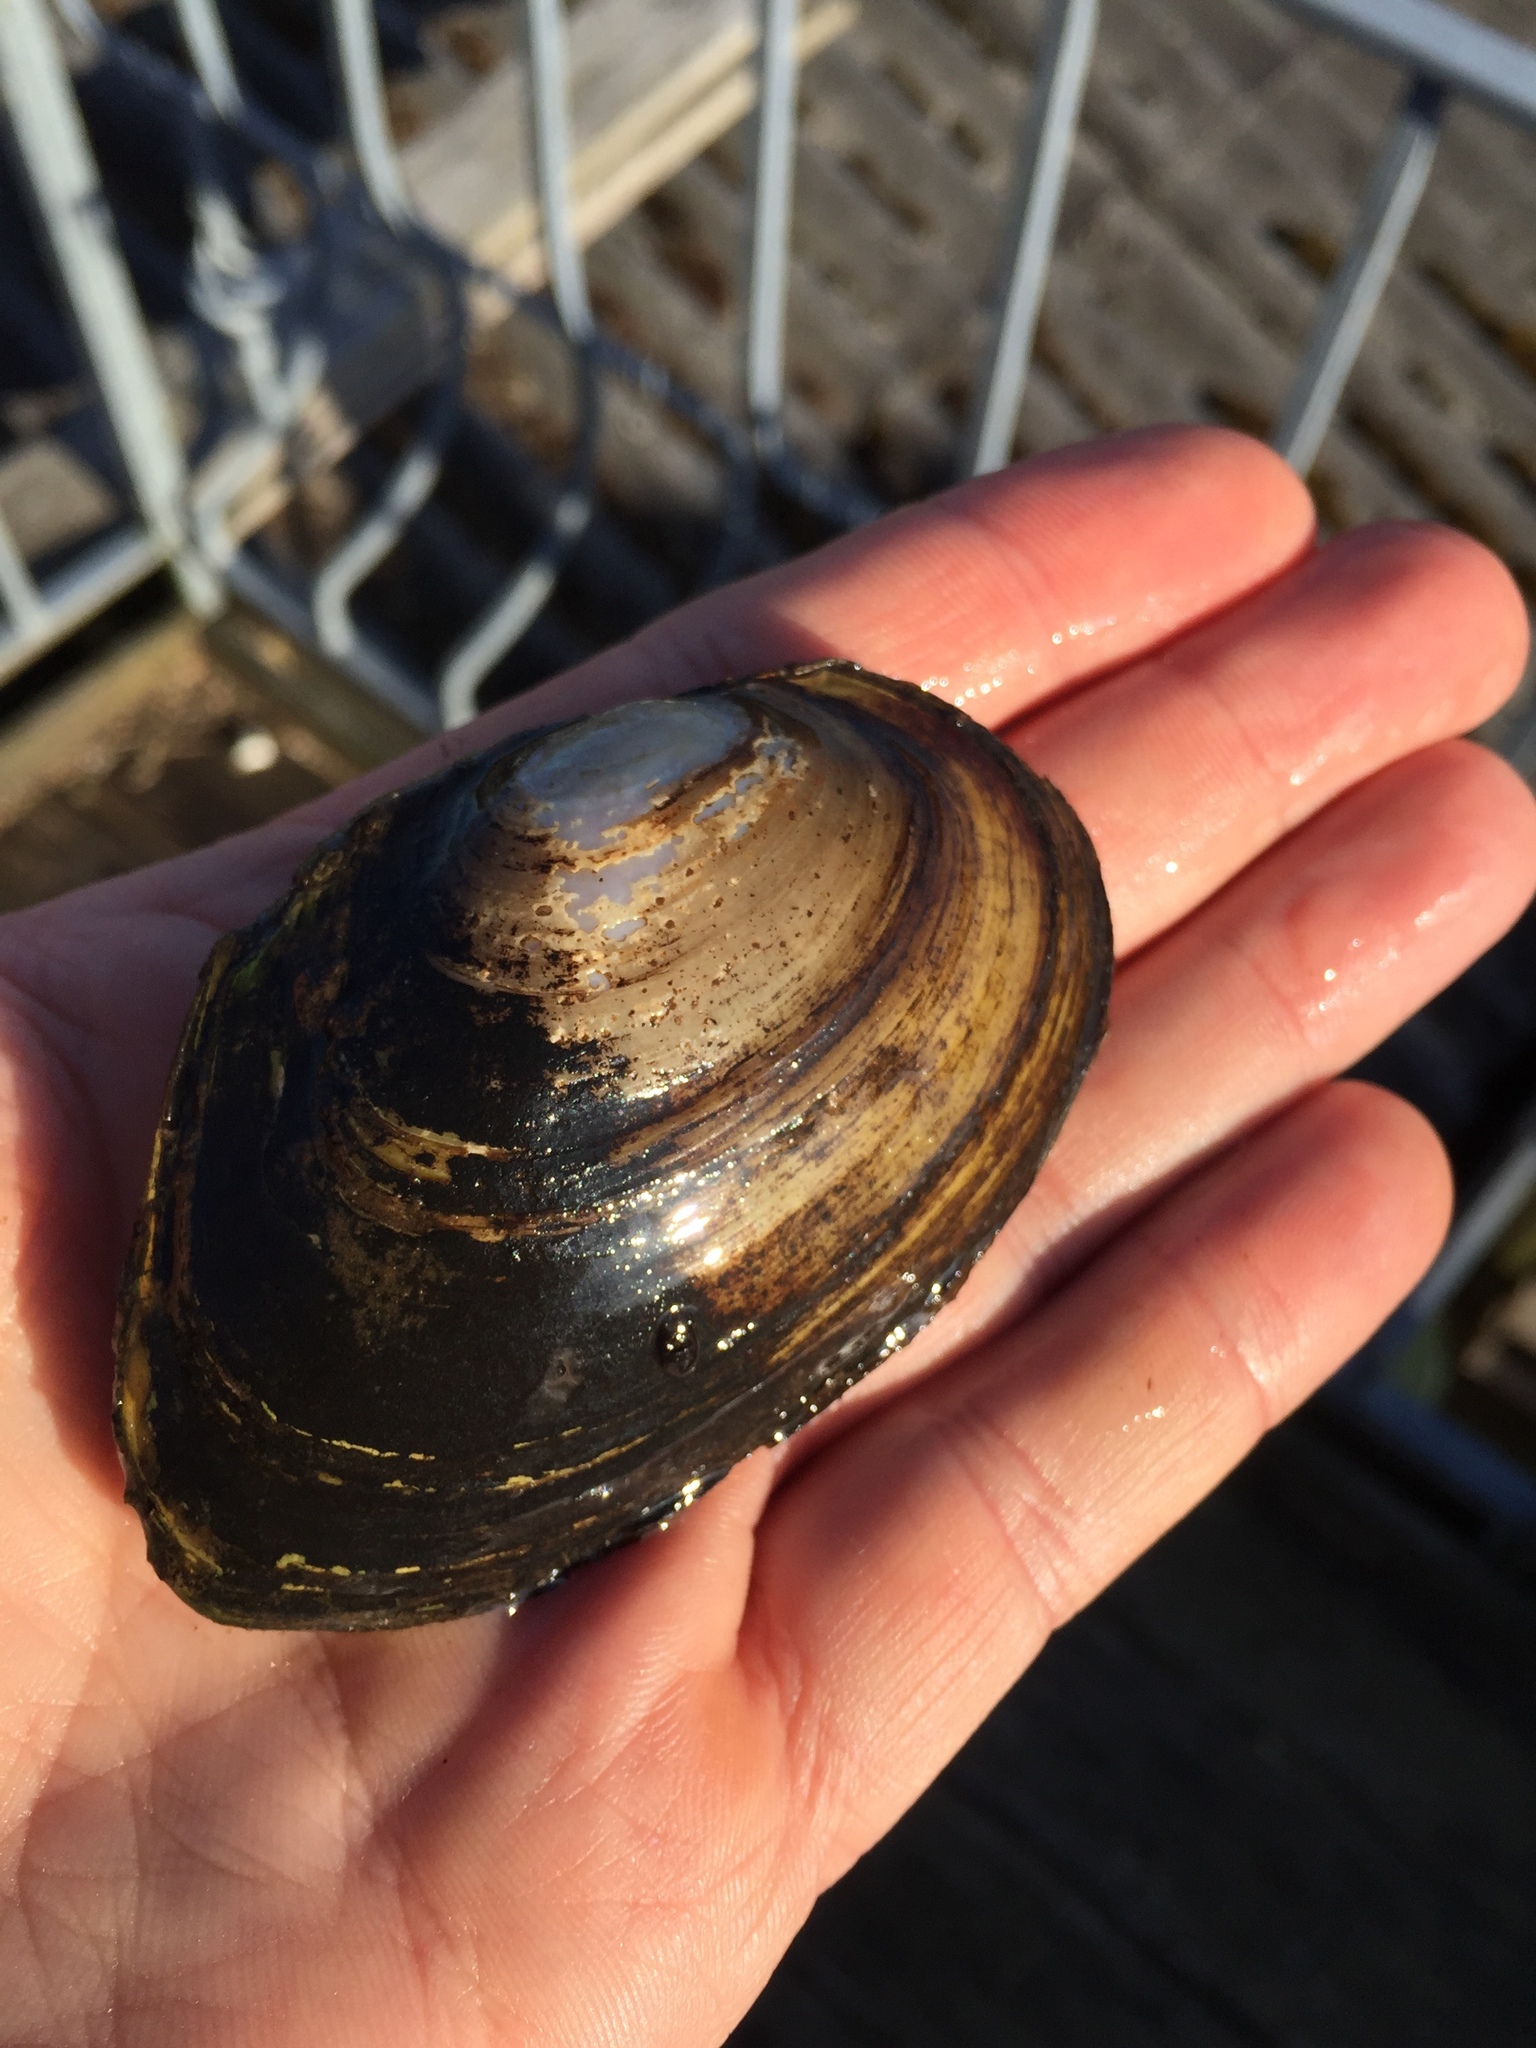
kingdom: Animalia
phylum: Mollusca
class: Bivalvia
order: Unionida
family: Unionidae
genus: Anodonta
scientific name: Anodonta anatina
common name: Duck mussel
